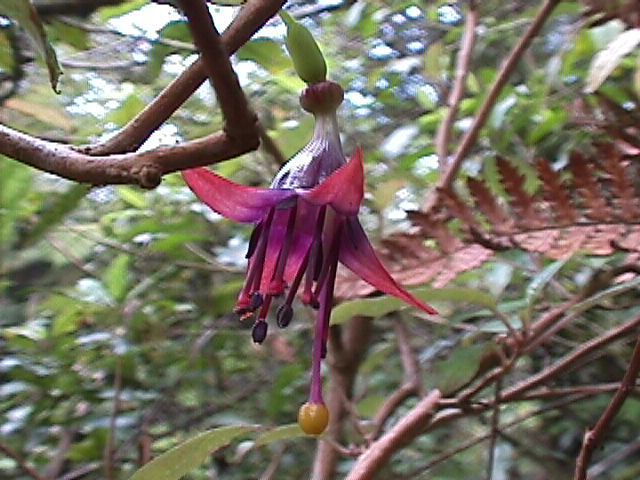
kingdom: Plantae
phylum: Tracheophyta
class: Magnoliopsida
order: Myrtales
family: Onagraceae
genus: Fuchsia
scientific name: Fuchsia excorticata
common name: Tree fuchsia
